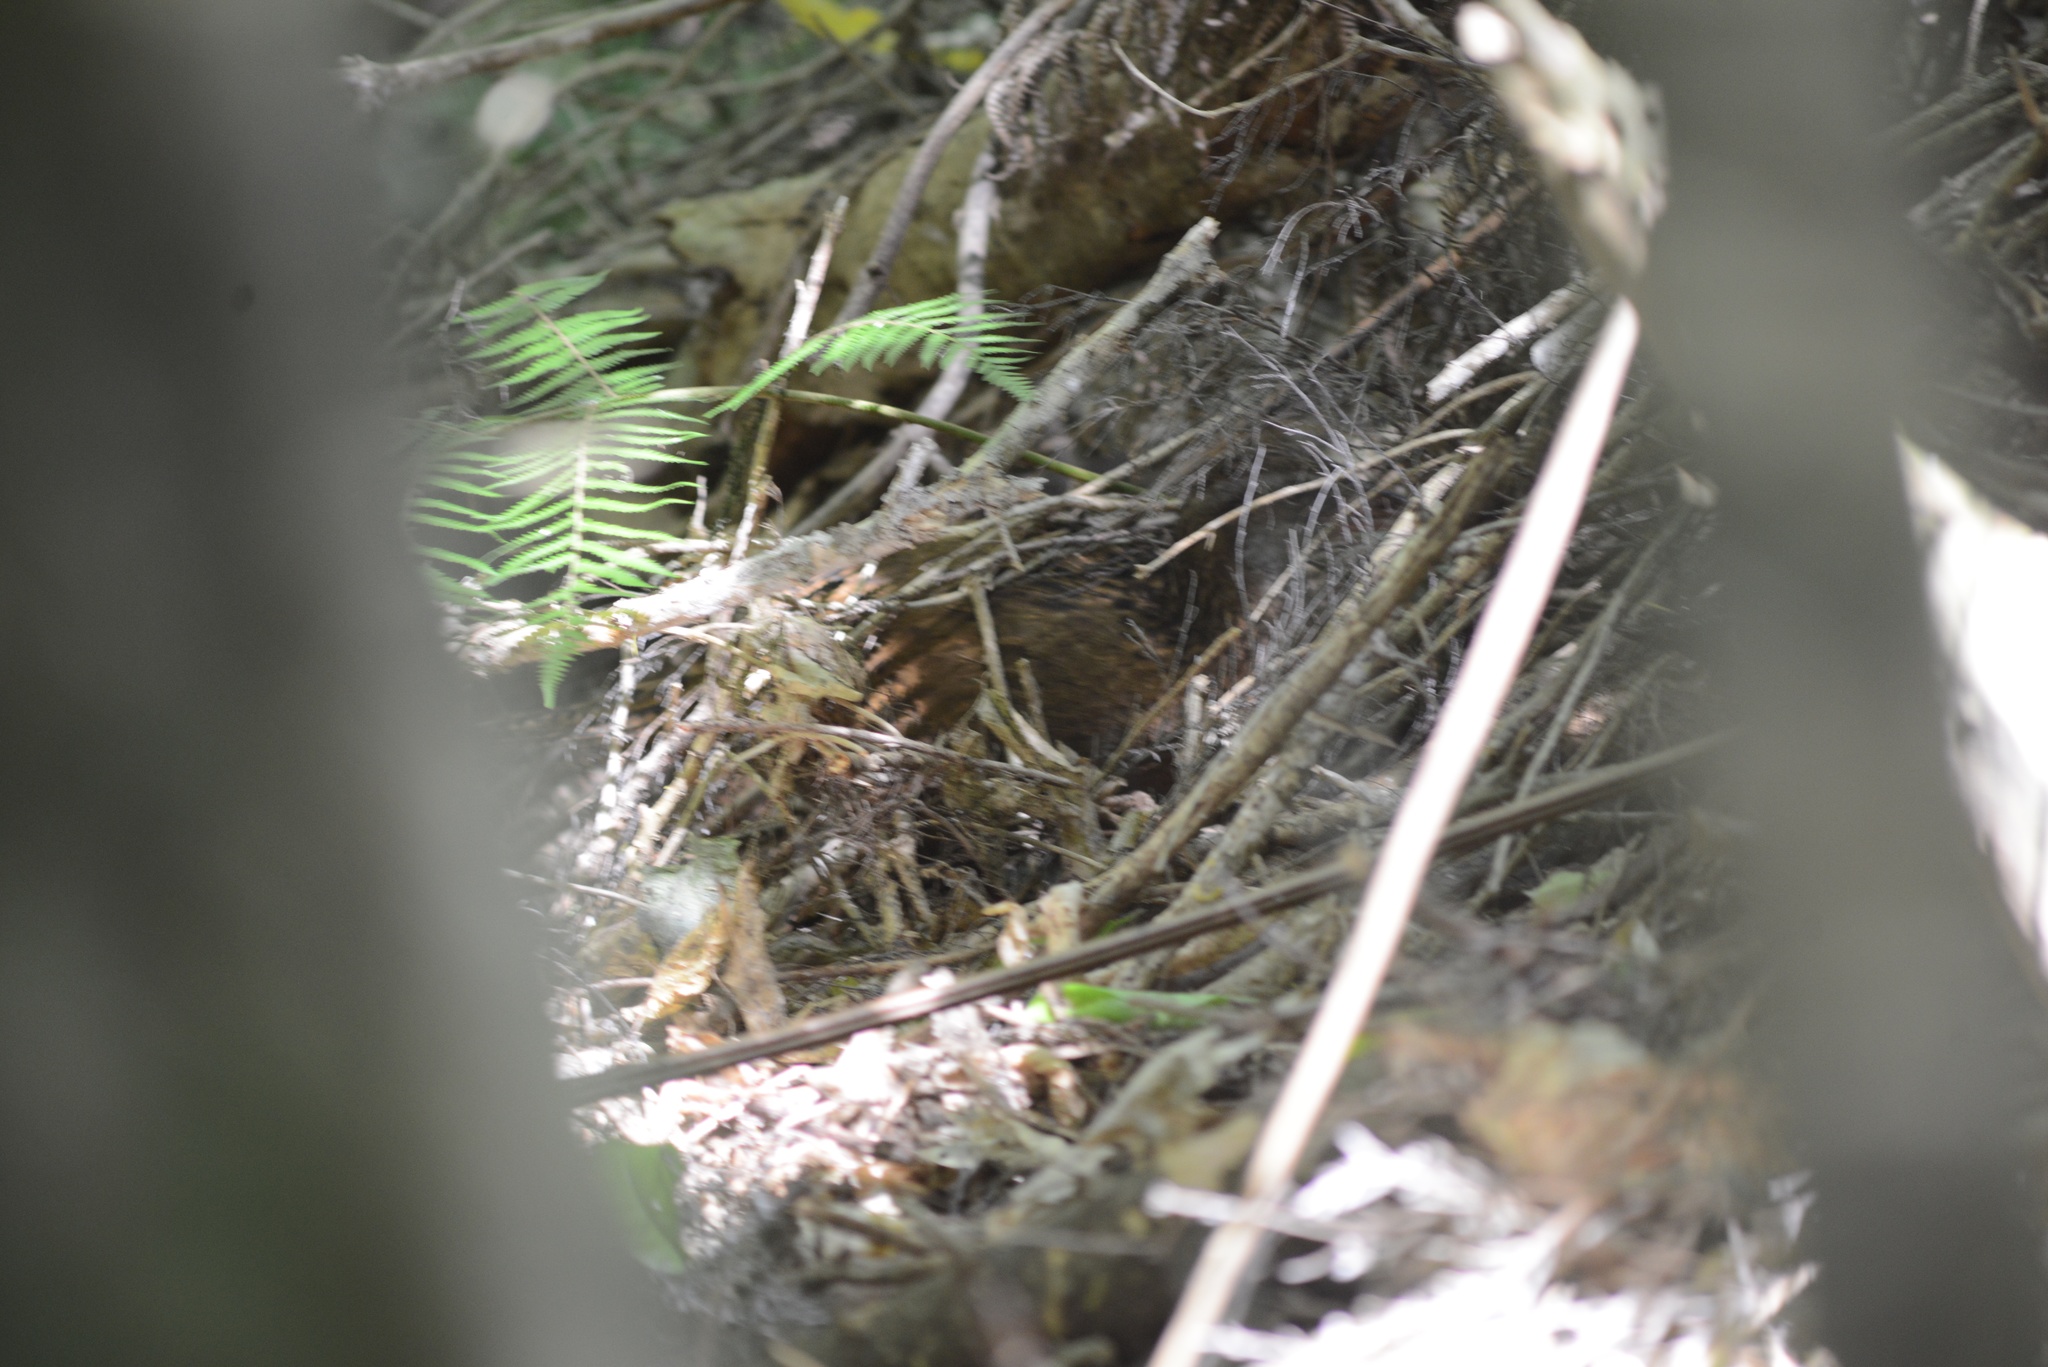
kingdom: Animalia
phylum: Chordata
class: Aves
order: Gruiformes
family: Rallidae
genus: Gallirallus
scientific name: Gallirallus australis
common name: Weka
